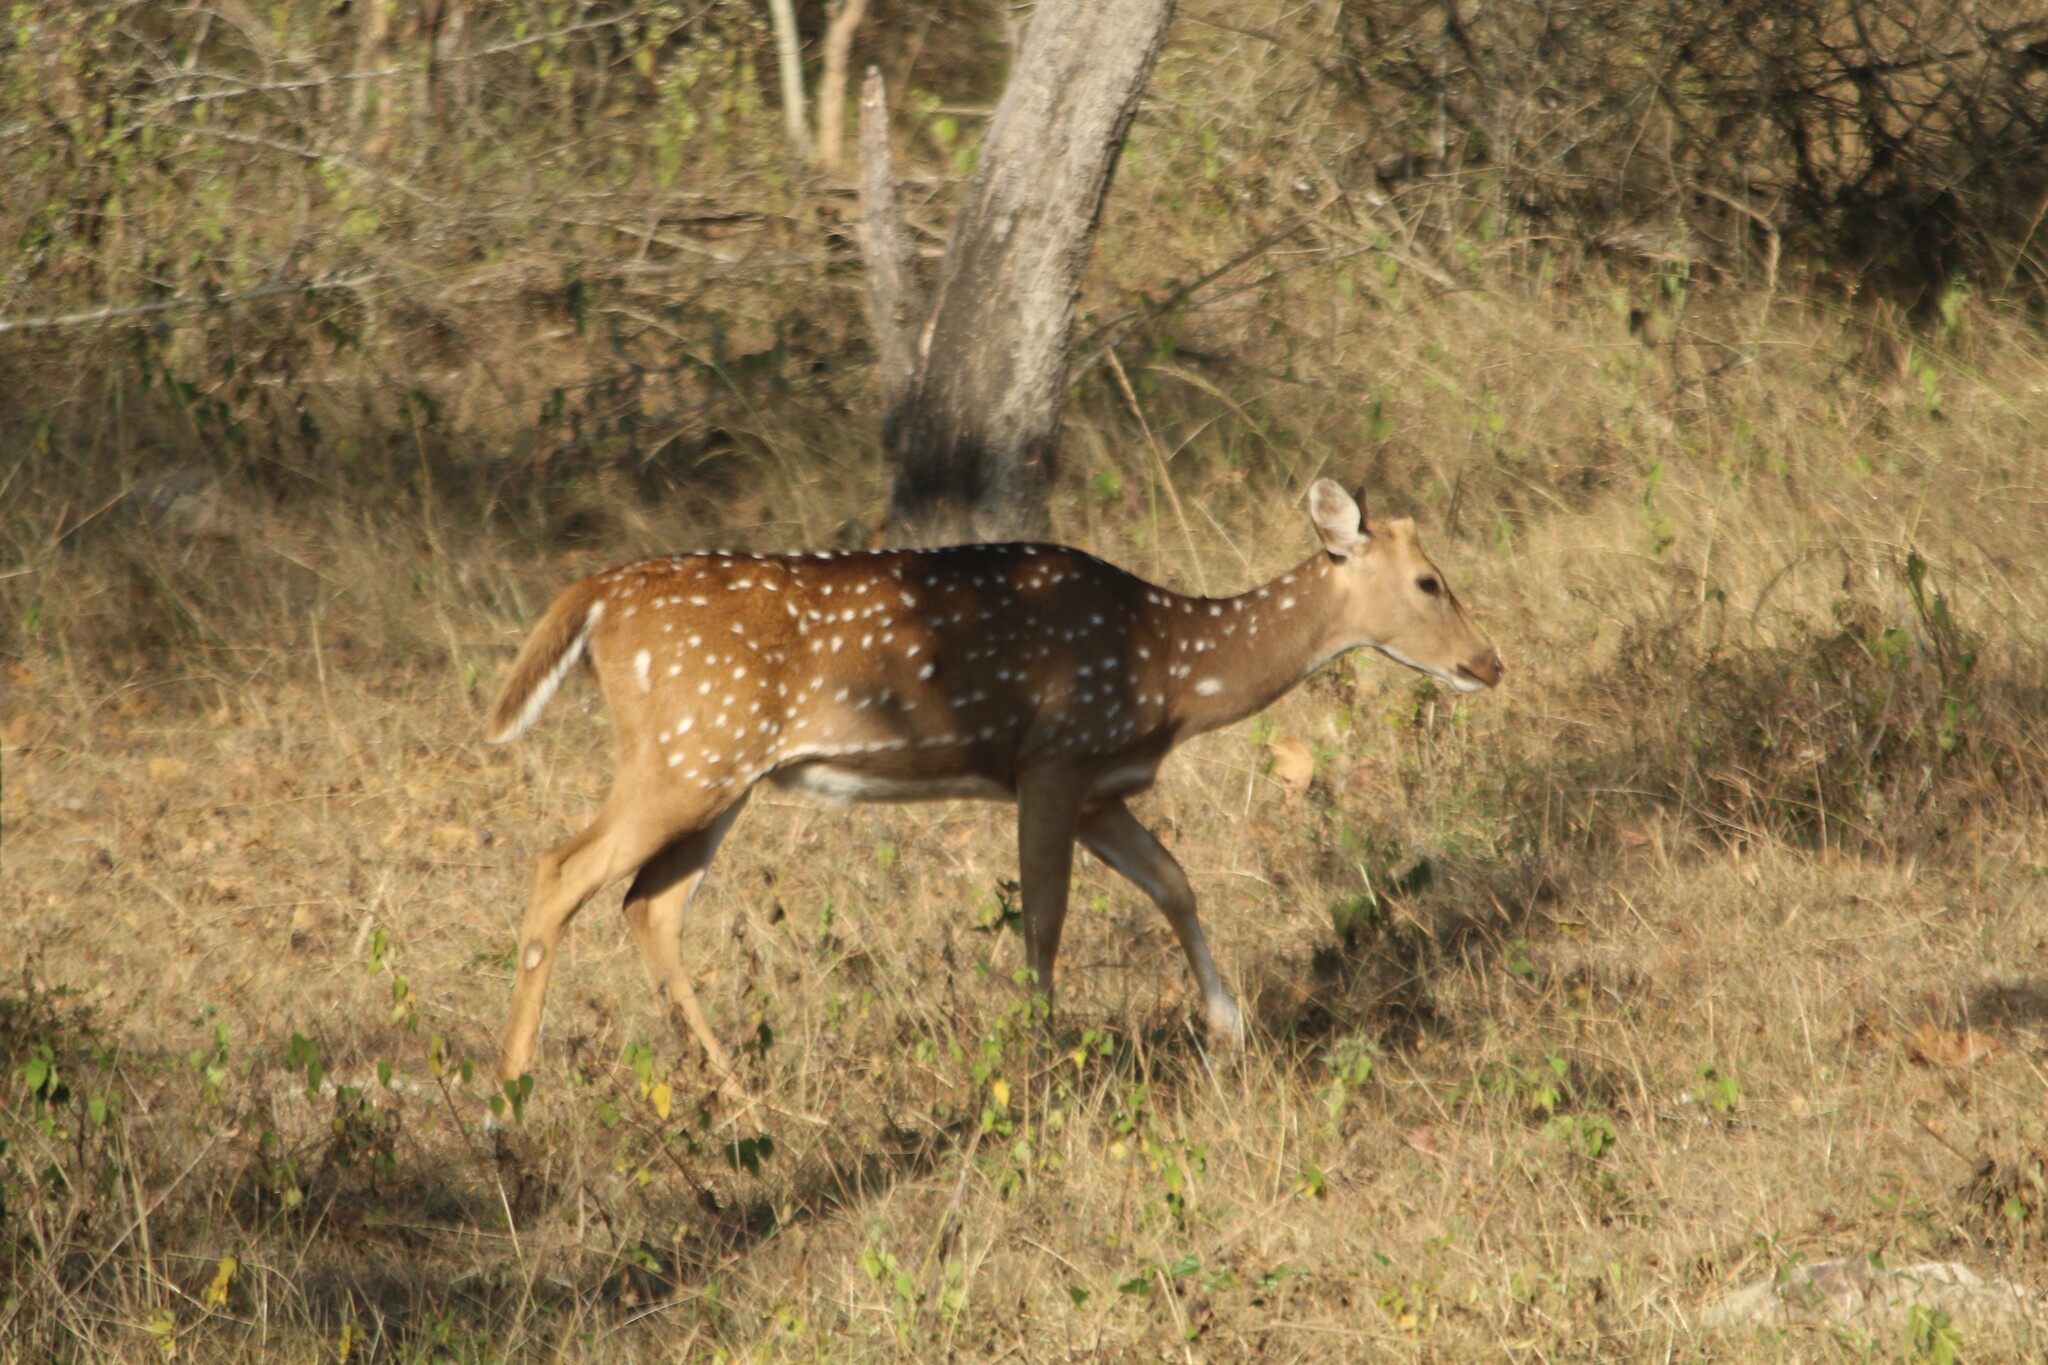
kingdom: Animalia
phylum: Chordata
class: Mammalia
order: Artiodactyla
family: Cervidae
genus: Axis
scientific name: Axis axis
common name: Chital
